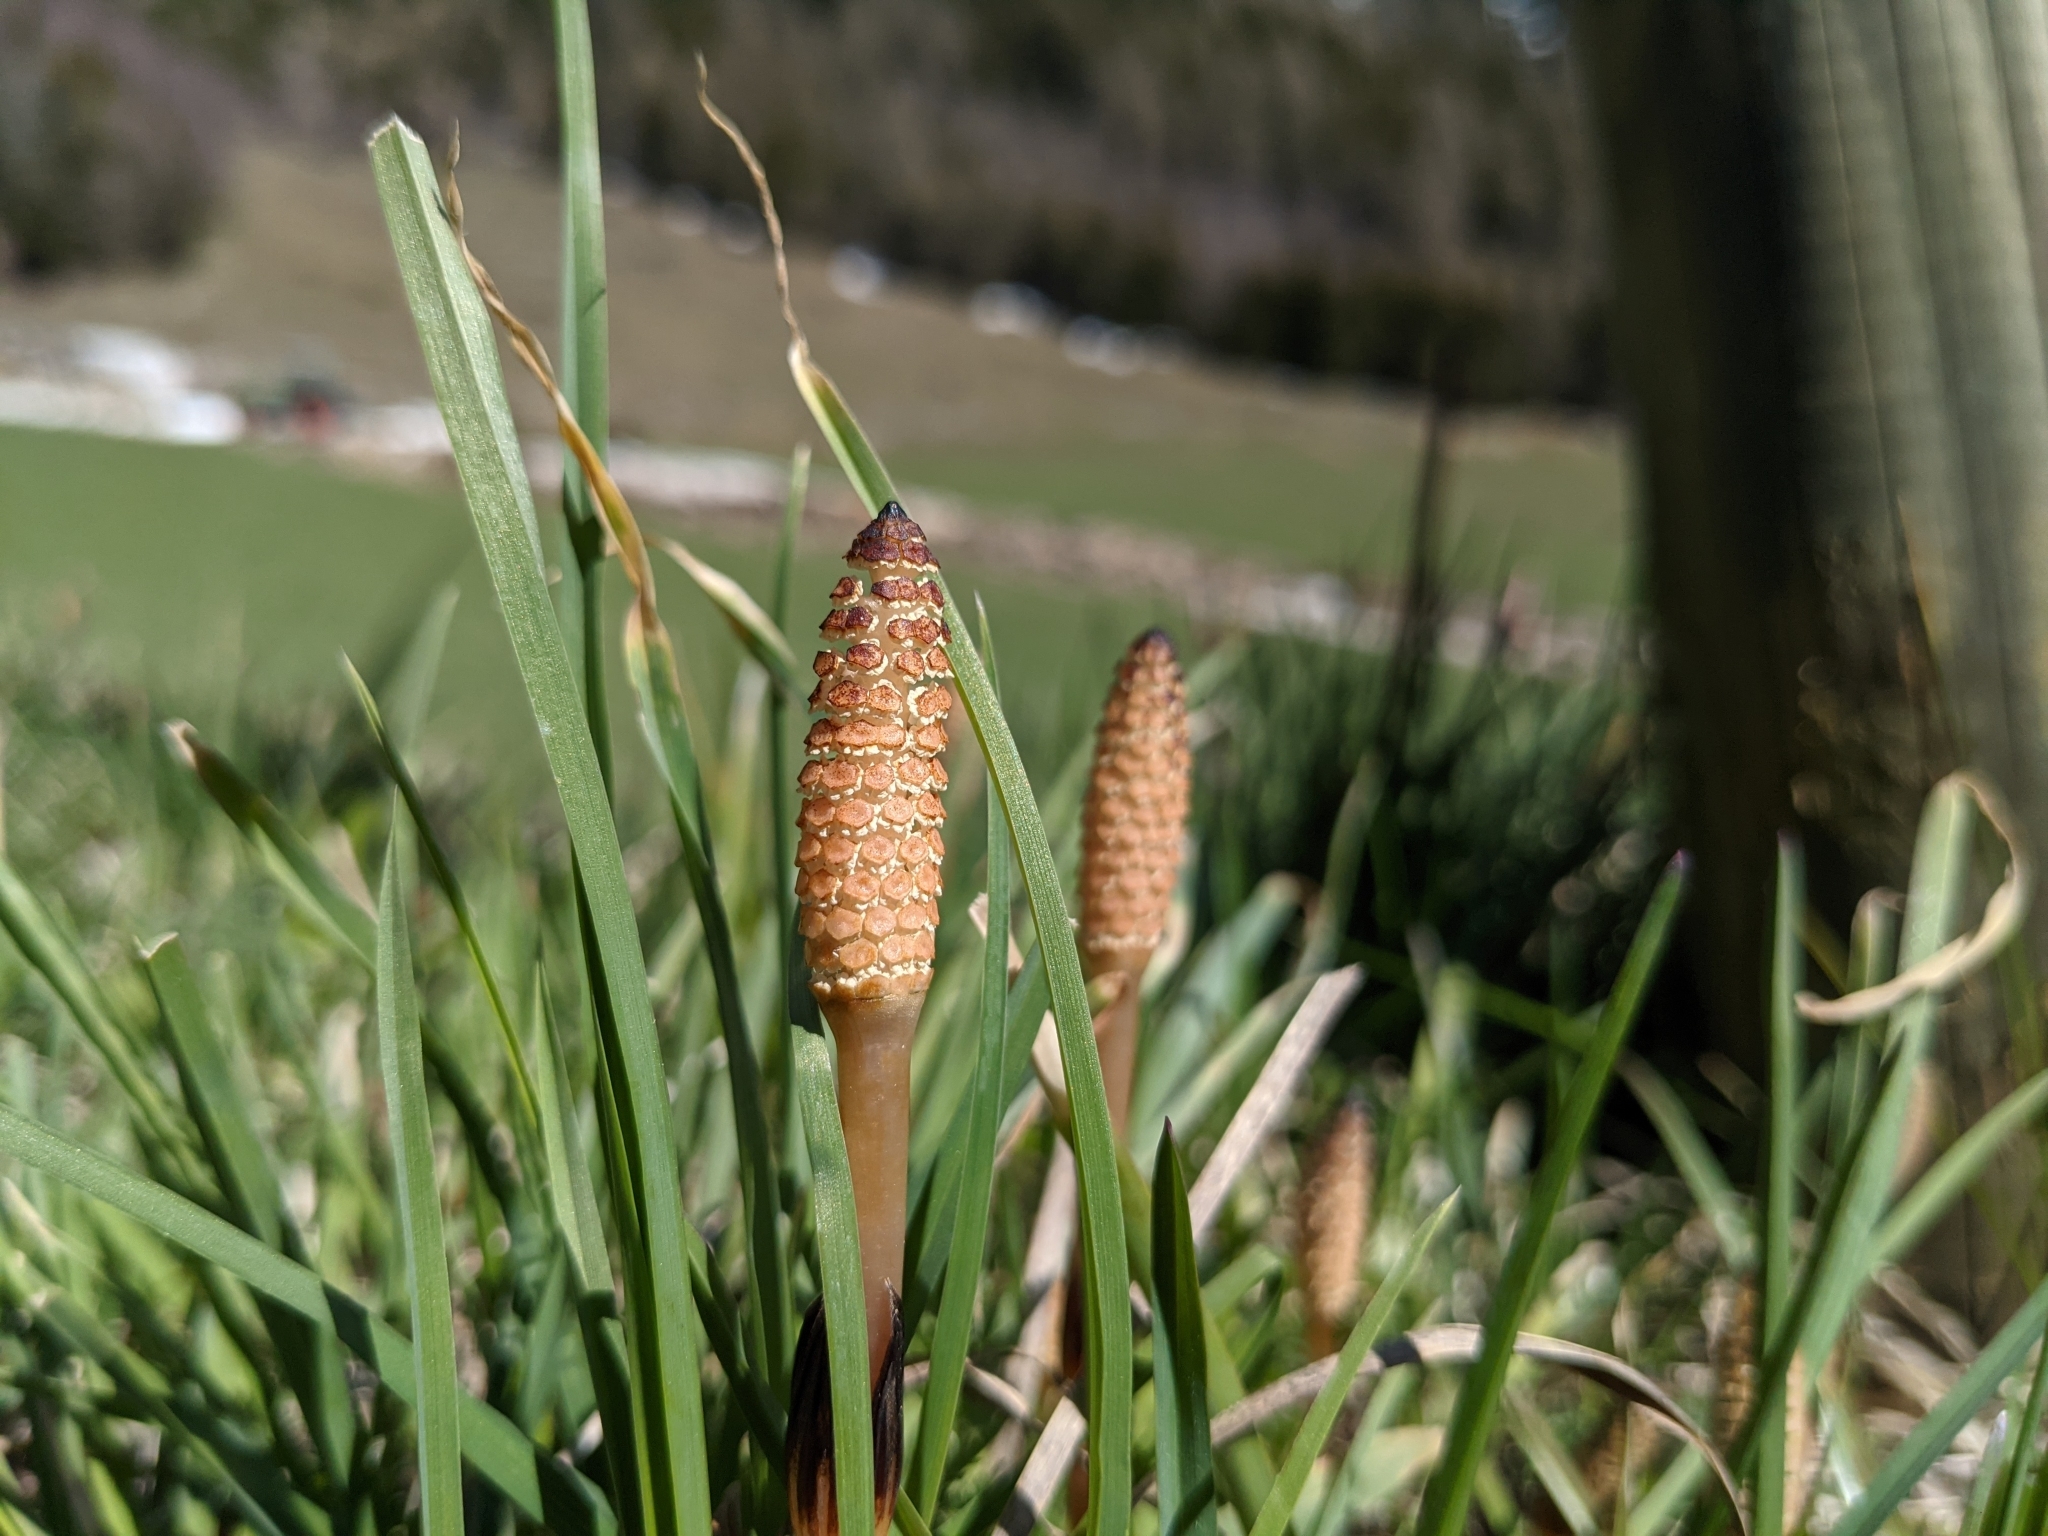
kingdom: Plantae
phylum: Tracheophyta
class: Polypodiopsida
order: Equisetales
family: Equisetaceae
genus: Equisetum
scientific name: Equisetum arvense
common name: Field horsetail
